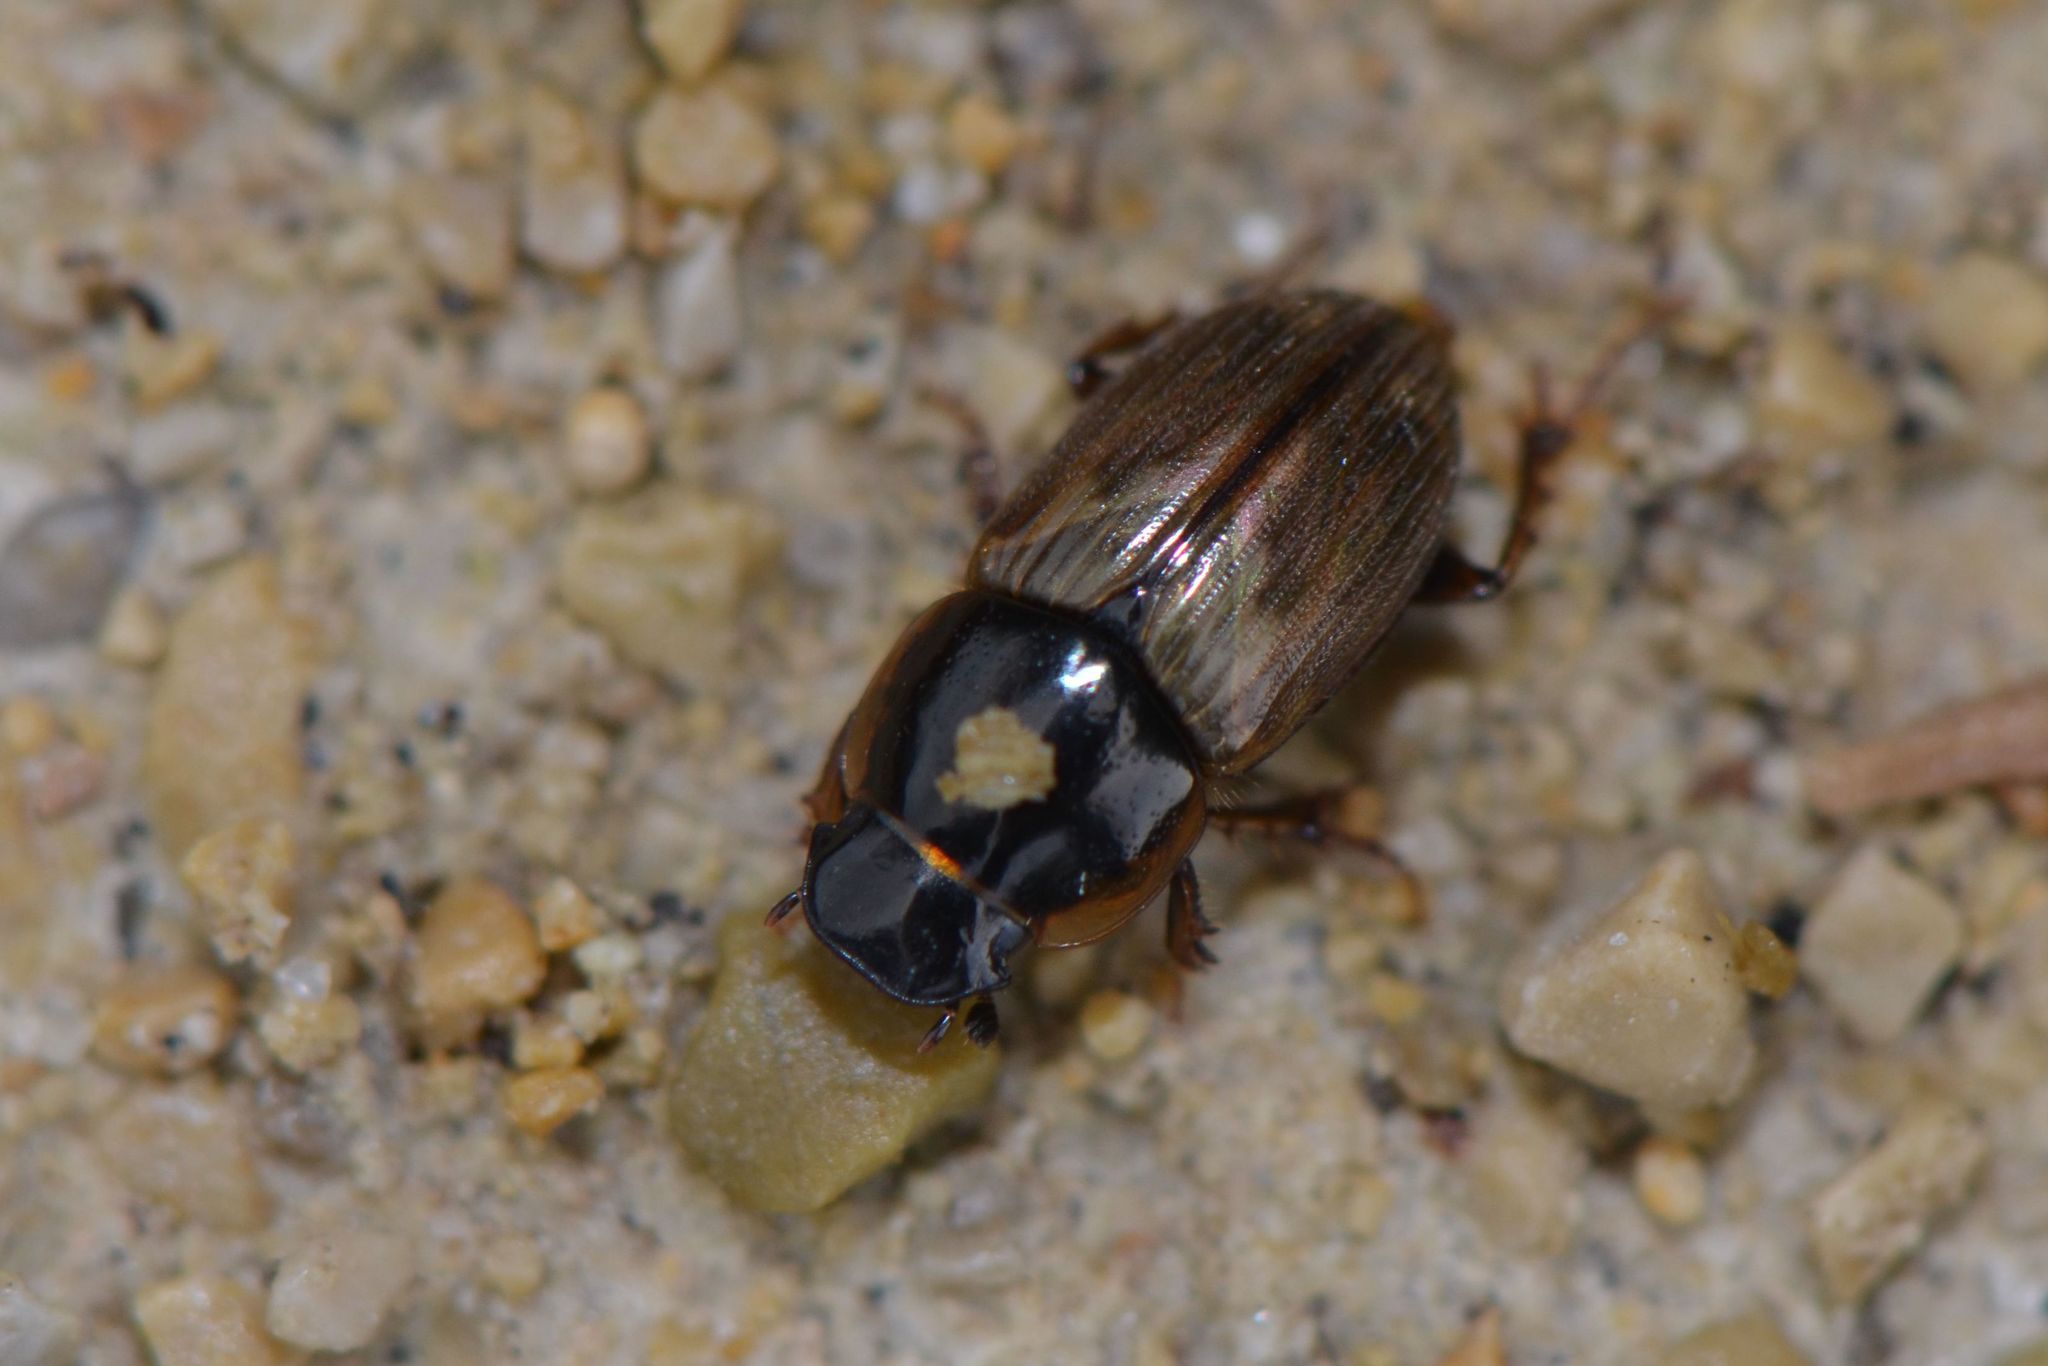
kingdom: Animalia
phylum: Arthropoda
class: Insecta
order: Coleoptera
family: Scarabaeidae
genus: Melinopterus
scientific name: Melinopterus prodromus
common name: Spring small dung beetle
